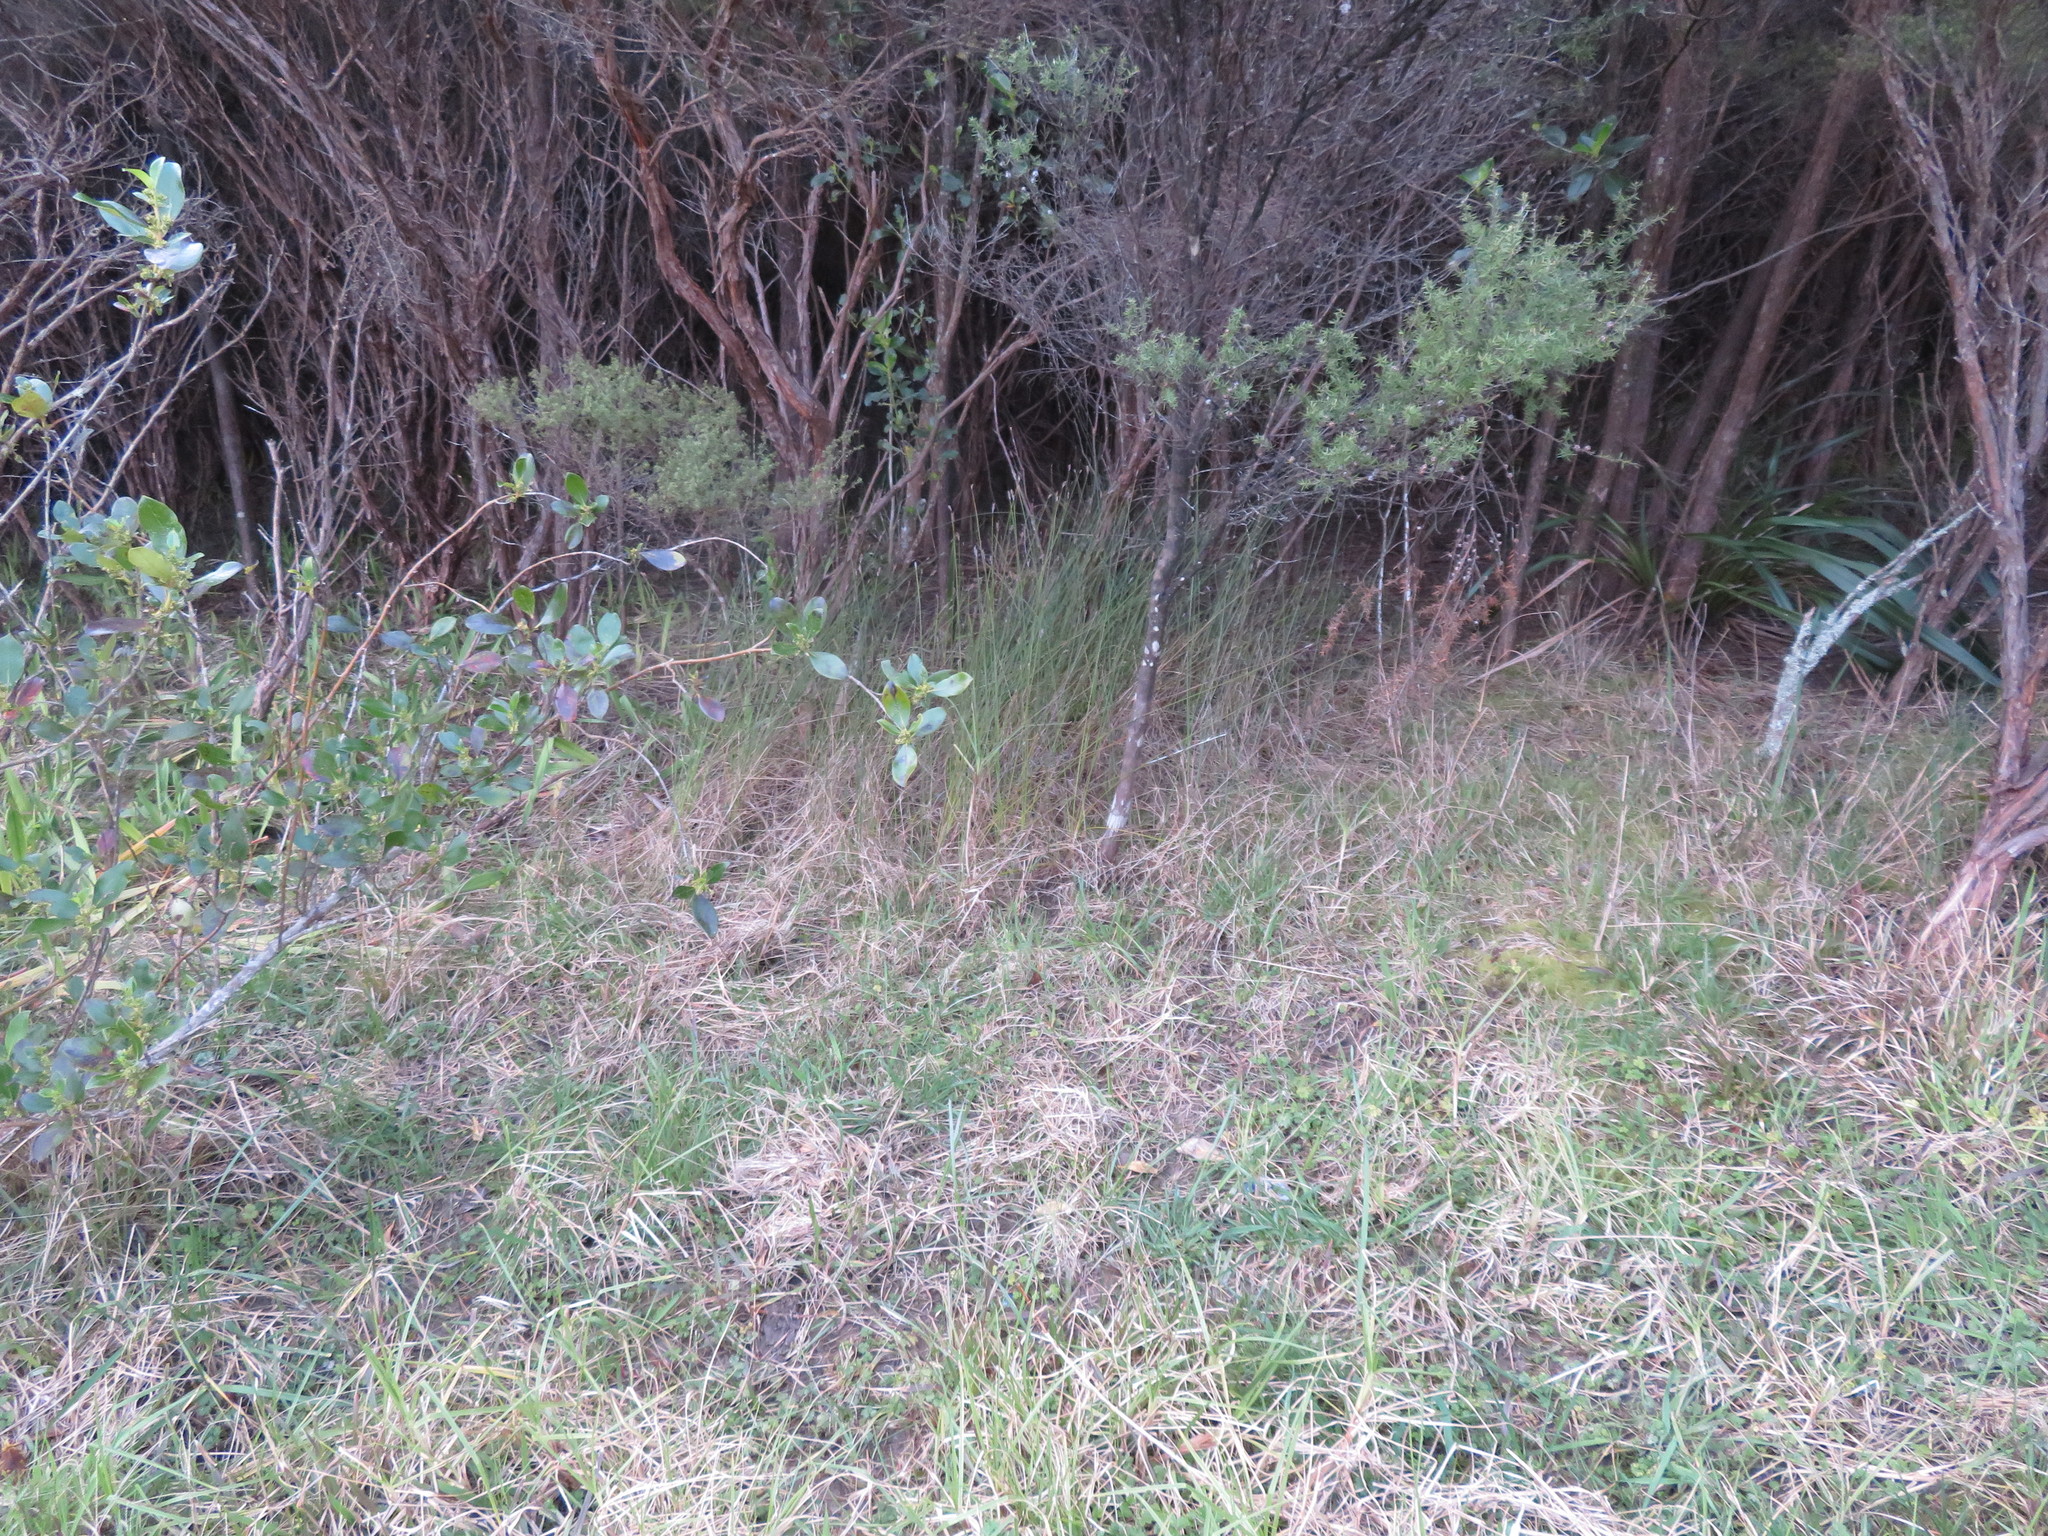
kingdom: Plantae
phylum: Tracheophyta
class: Magnoliopsida
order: Gentianales
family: Rubiaceae
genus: Coprosma
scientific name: Coprosma robusta
